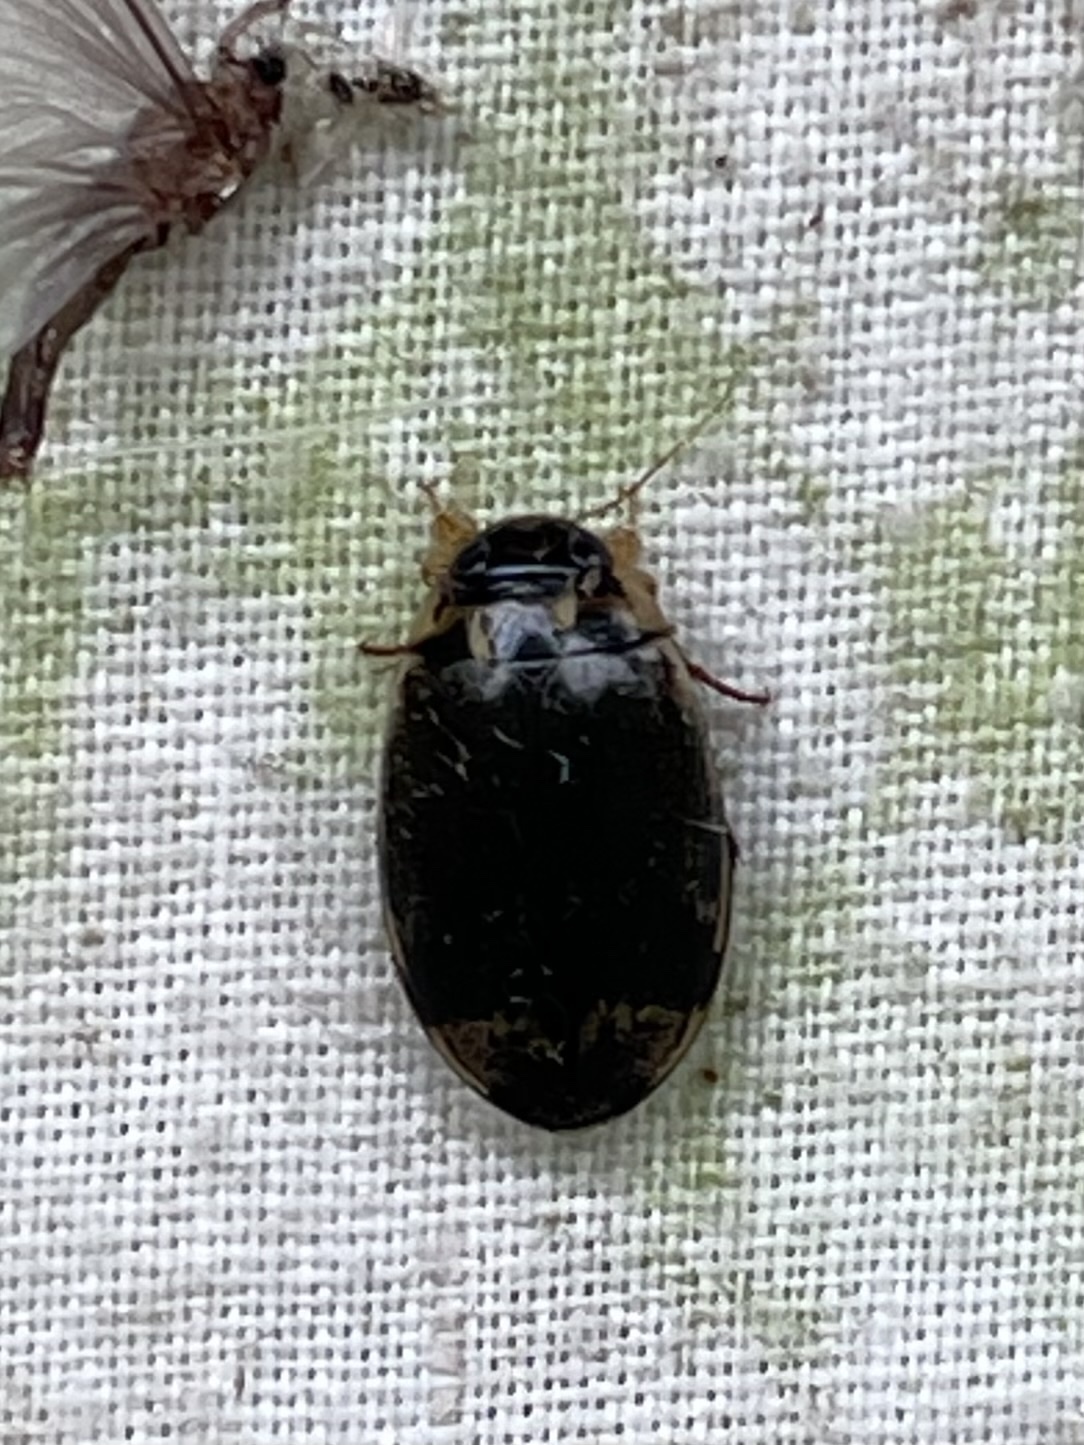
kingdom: Animalia
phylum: Arthropoda
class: Insecta
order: Coleoptera
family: Dytiscidae
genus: Thermonectus
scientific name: Thermonectus
